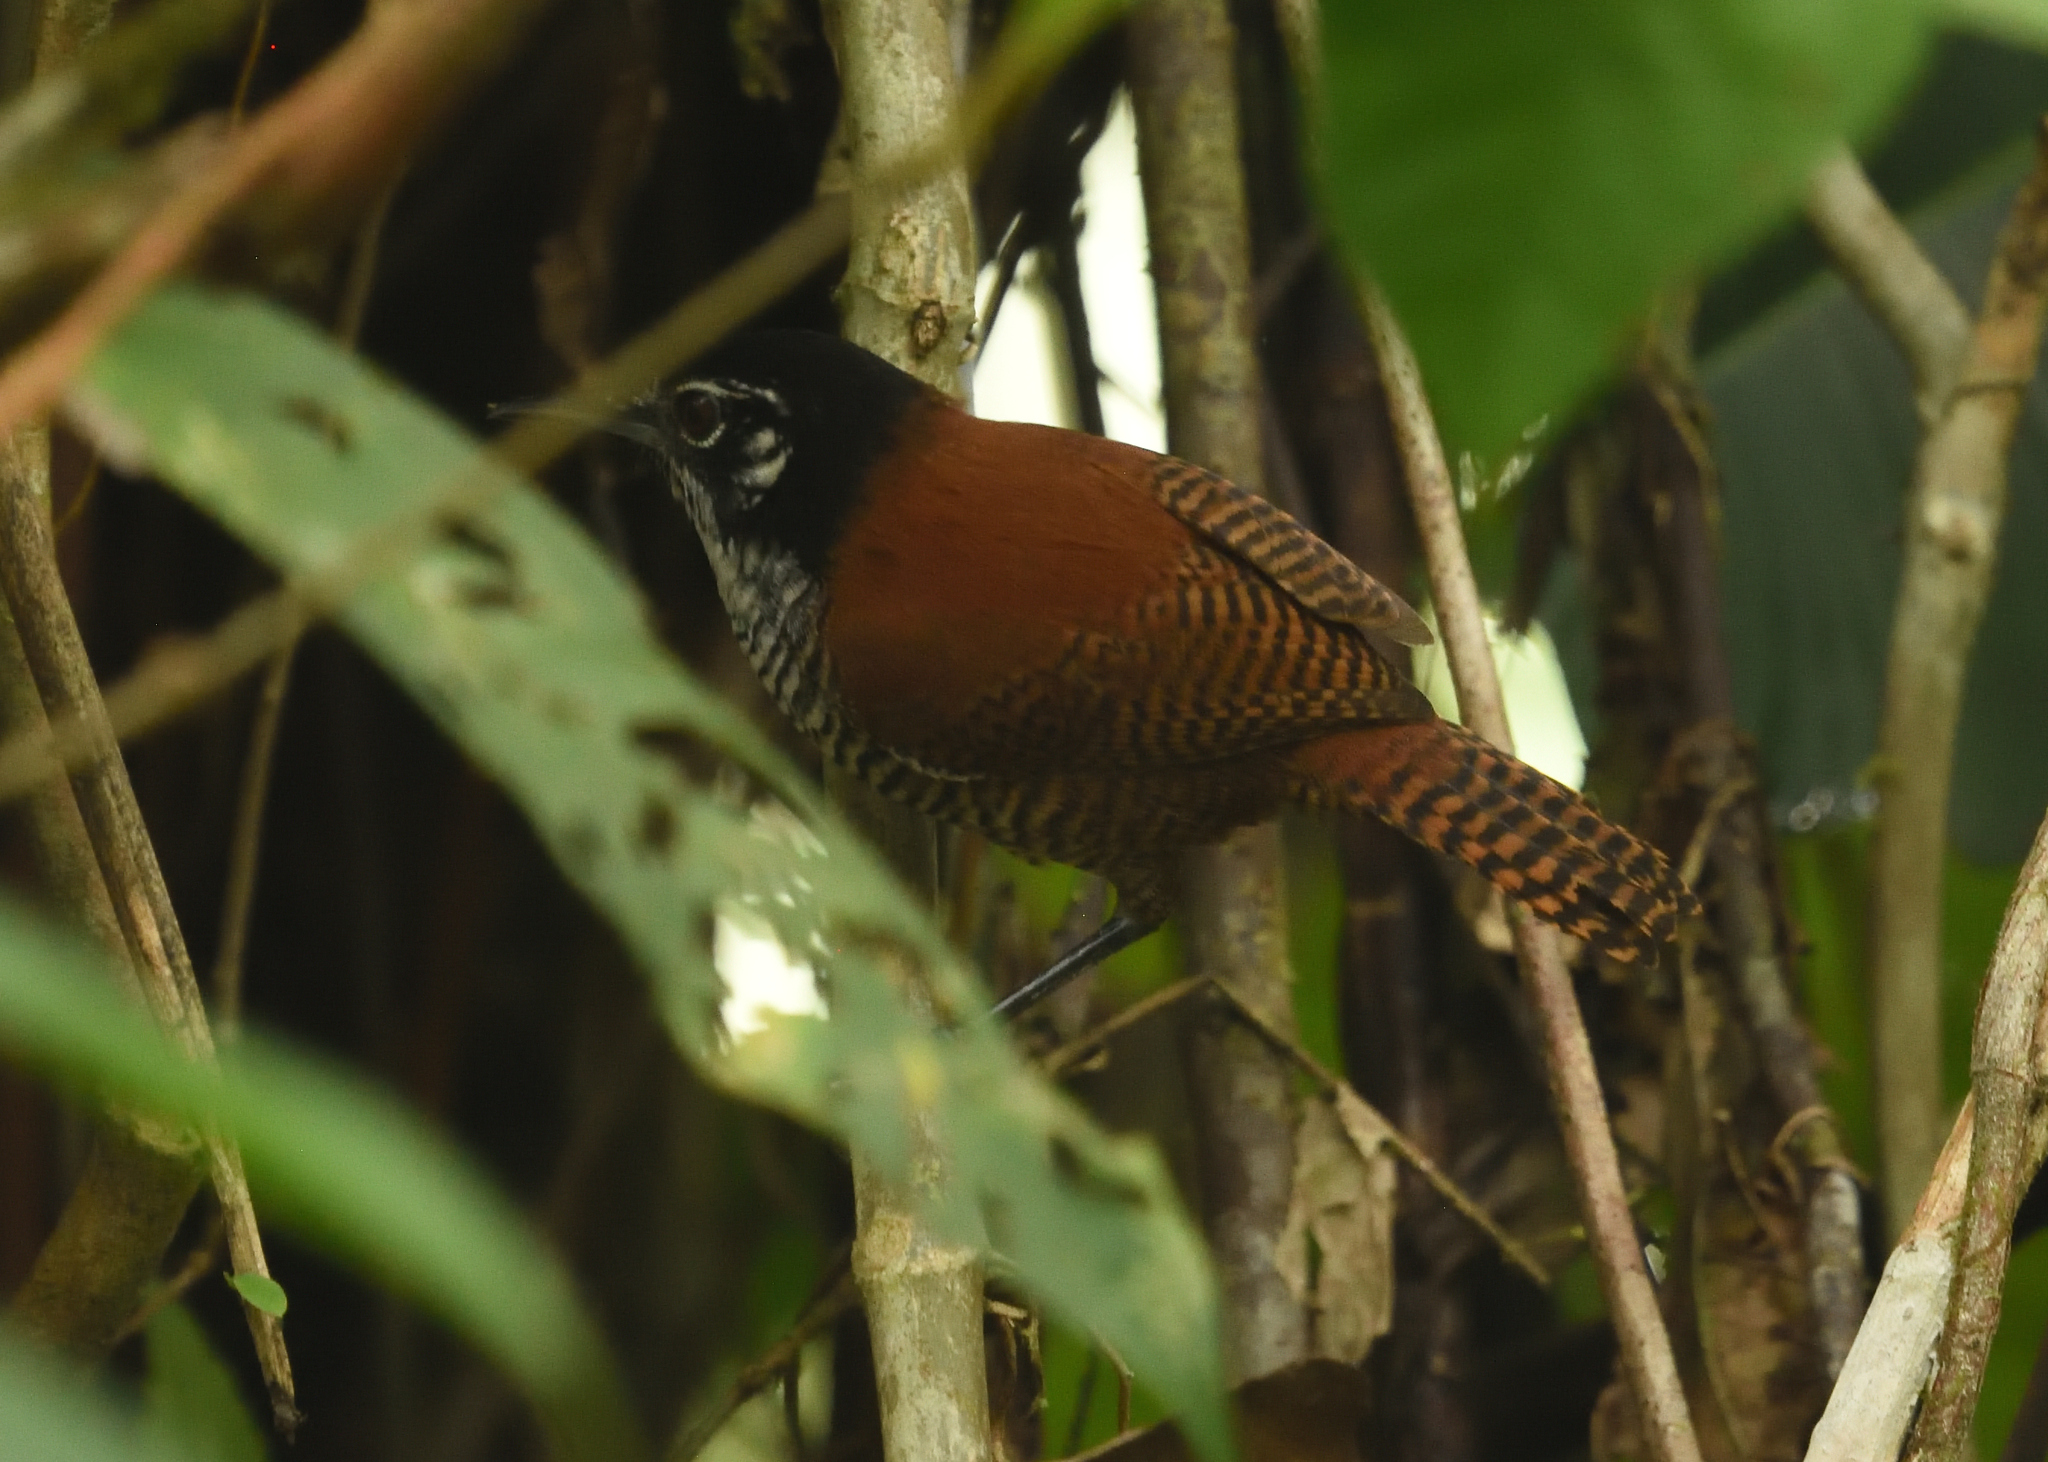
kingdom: Animalia
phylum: Chordata
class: Aves
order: Passeriformes
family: Troglodytidae
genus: Cantorchilus
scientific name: Cantorchilus nigricapillus
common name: Bay wren
